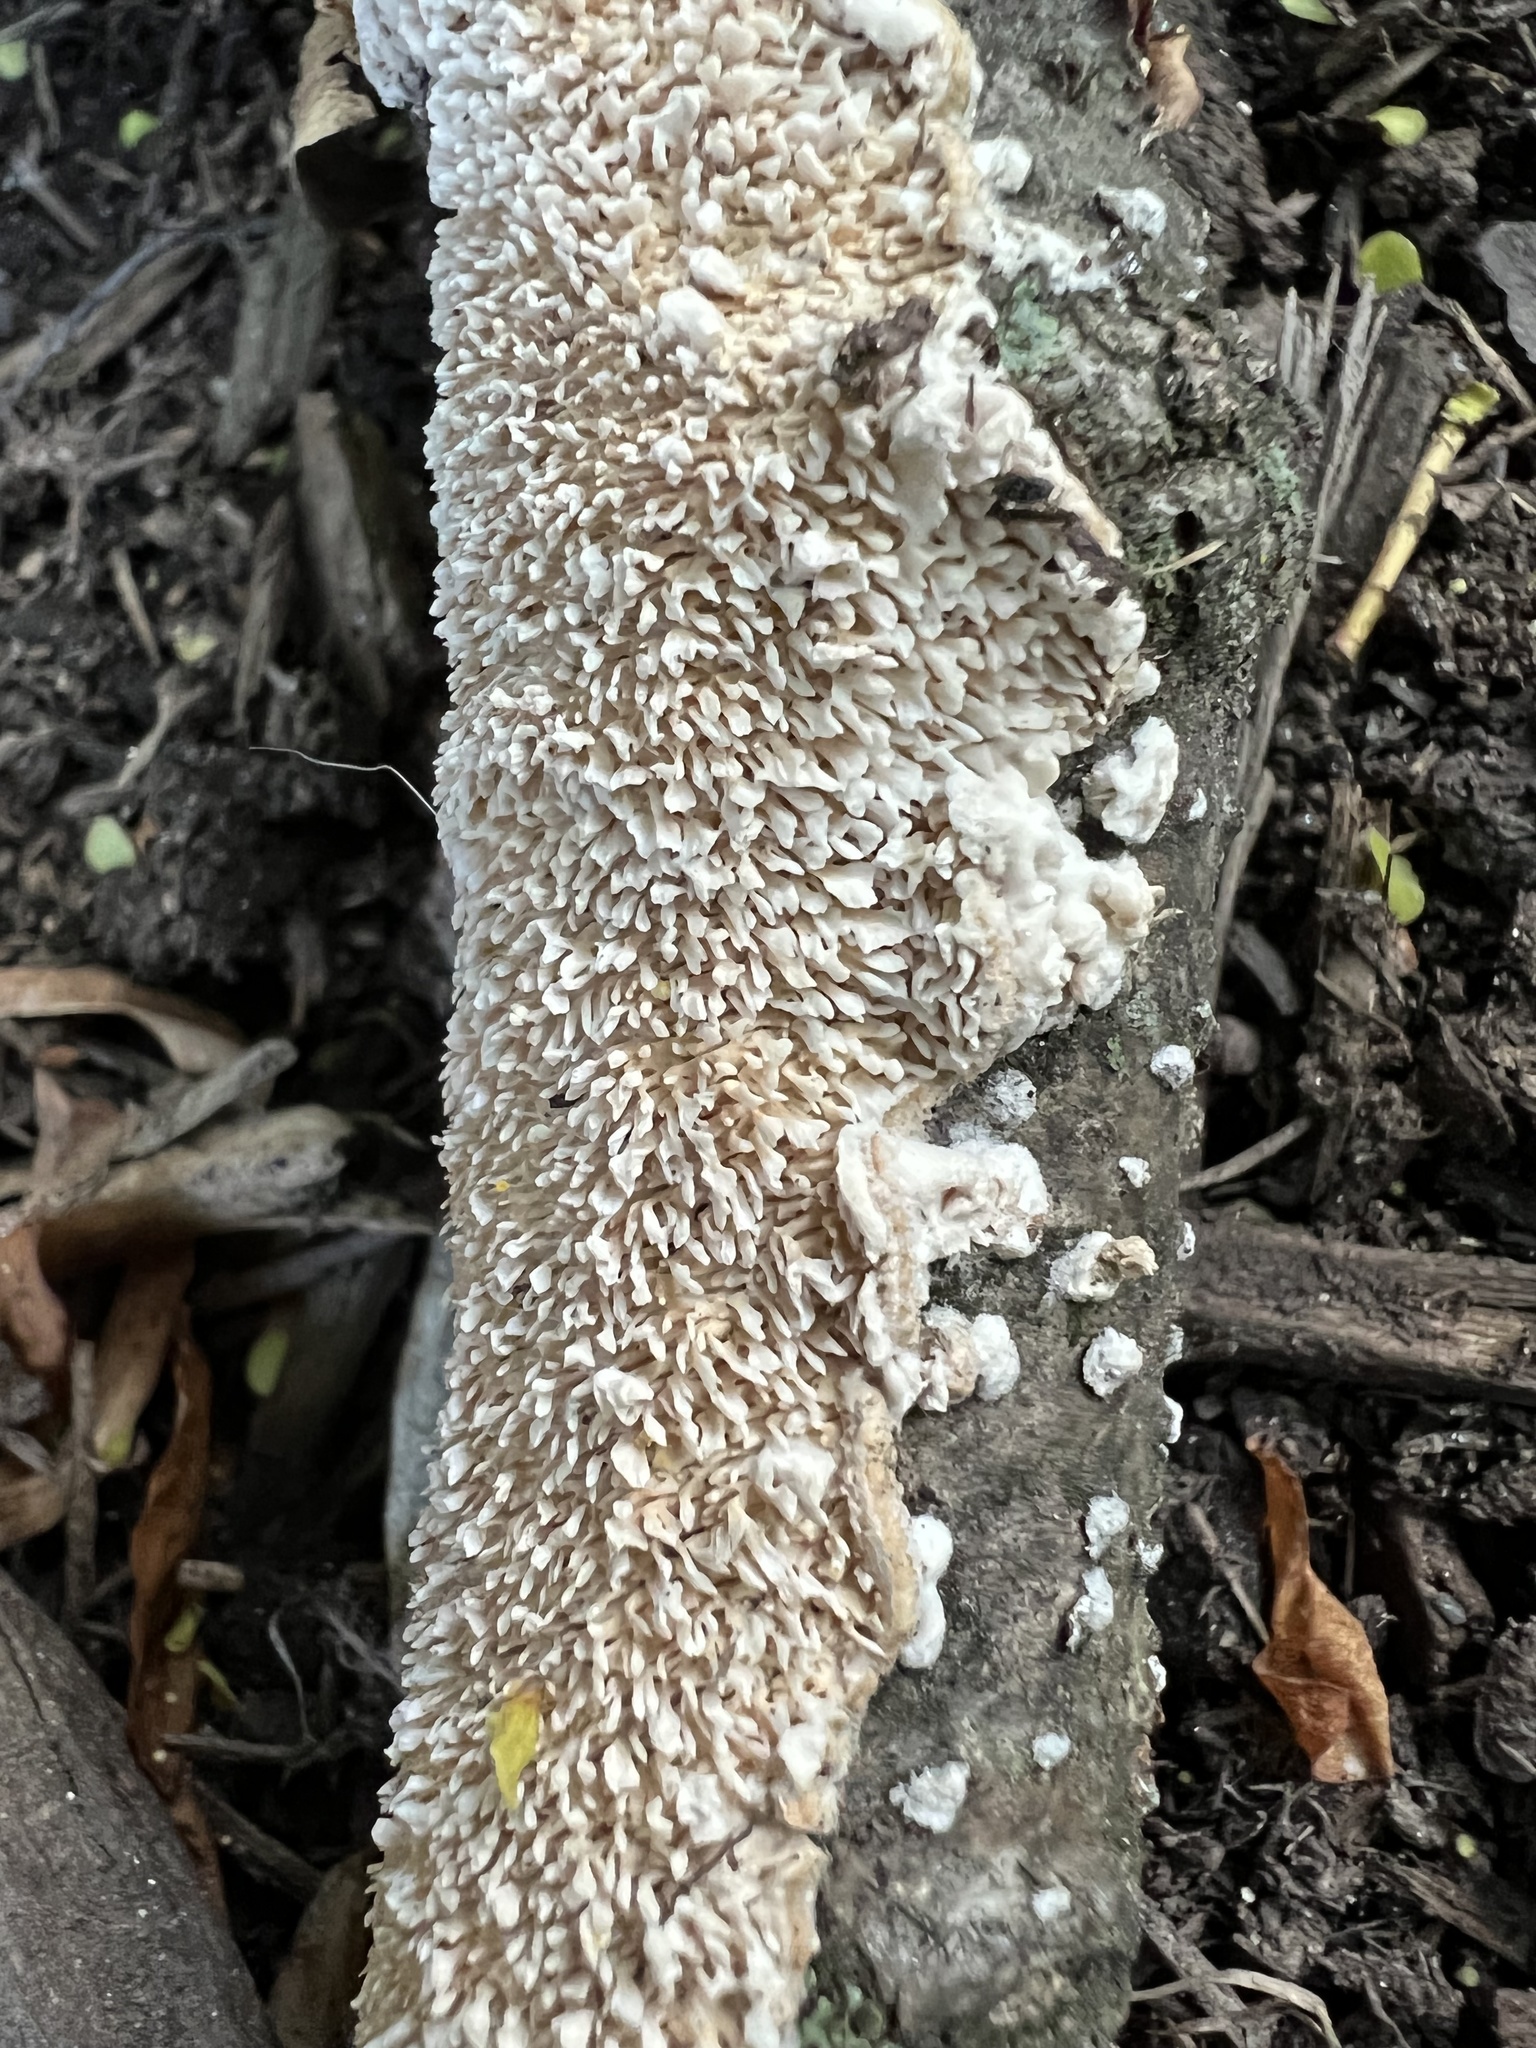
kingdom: Fungi
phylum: Basidiomycota
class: Agaricomycetes
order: Polyporales
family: Irpicaceae
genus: Irpex
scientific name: Irpex lacteus
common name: Milk-white toothed polypore
